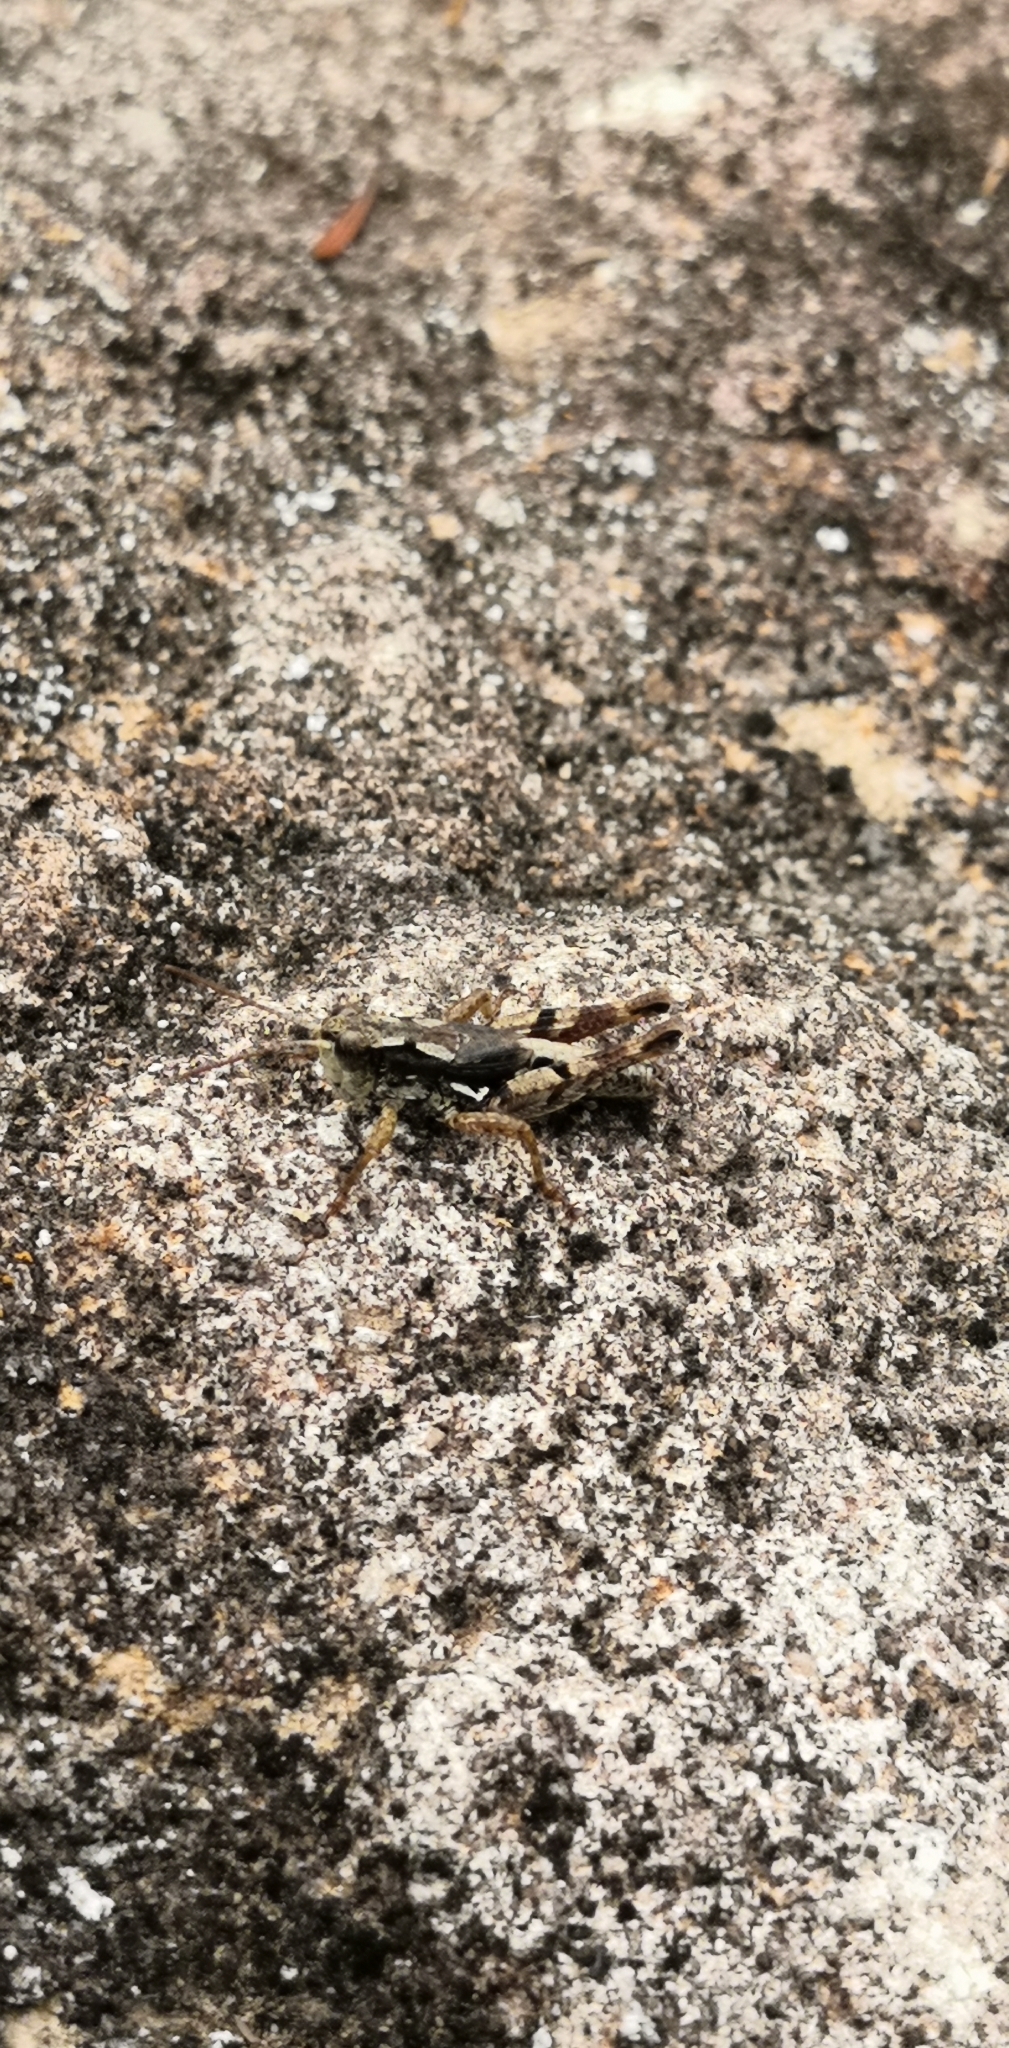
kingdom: Animalia
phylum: Arthropoda
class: Insecta
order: Orthoptera
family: Acrididae
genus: Phaulacridium
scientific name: Phaulacridium marginale
